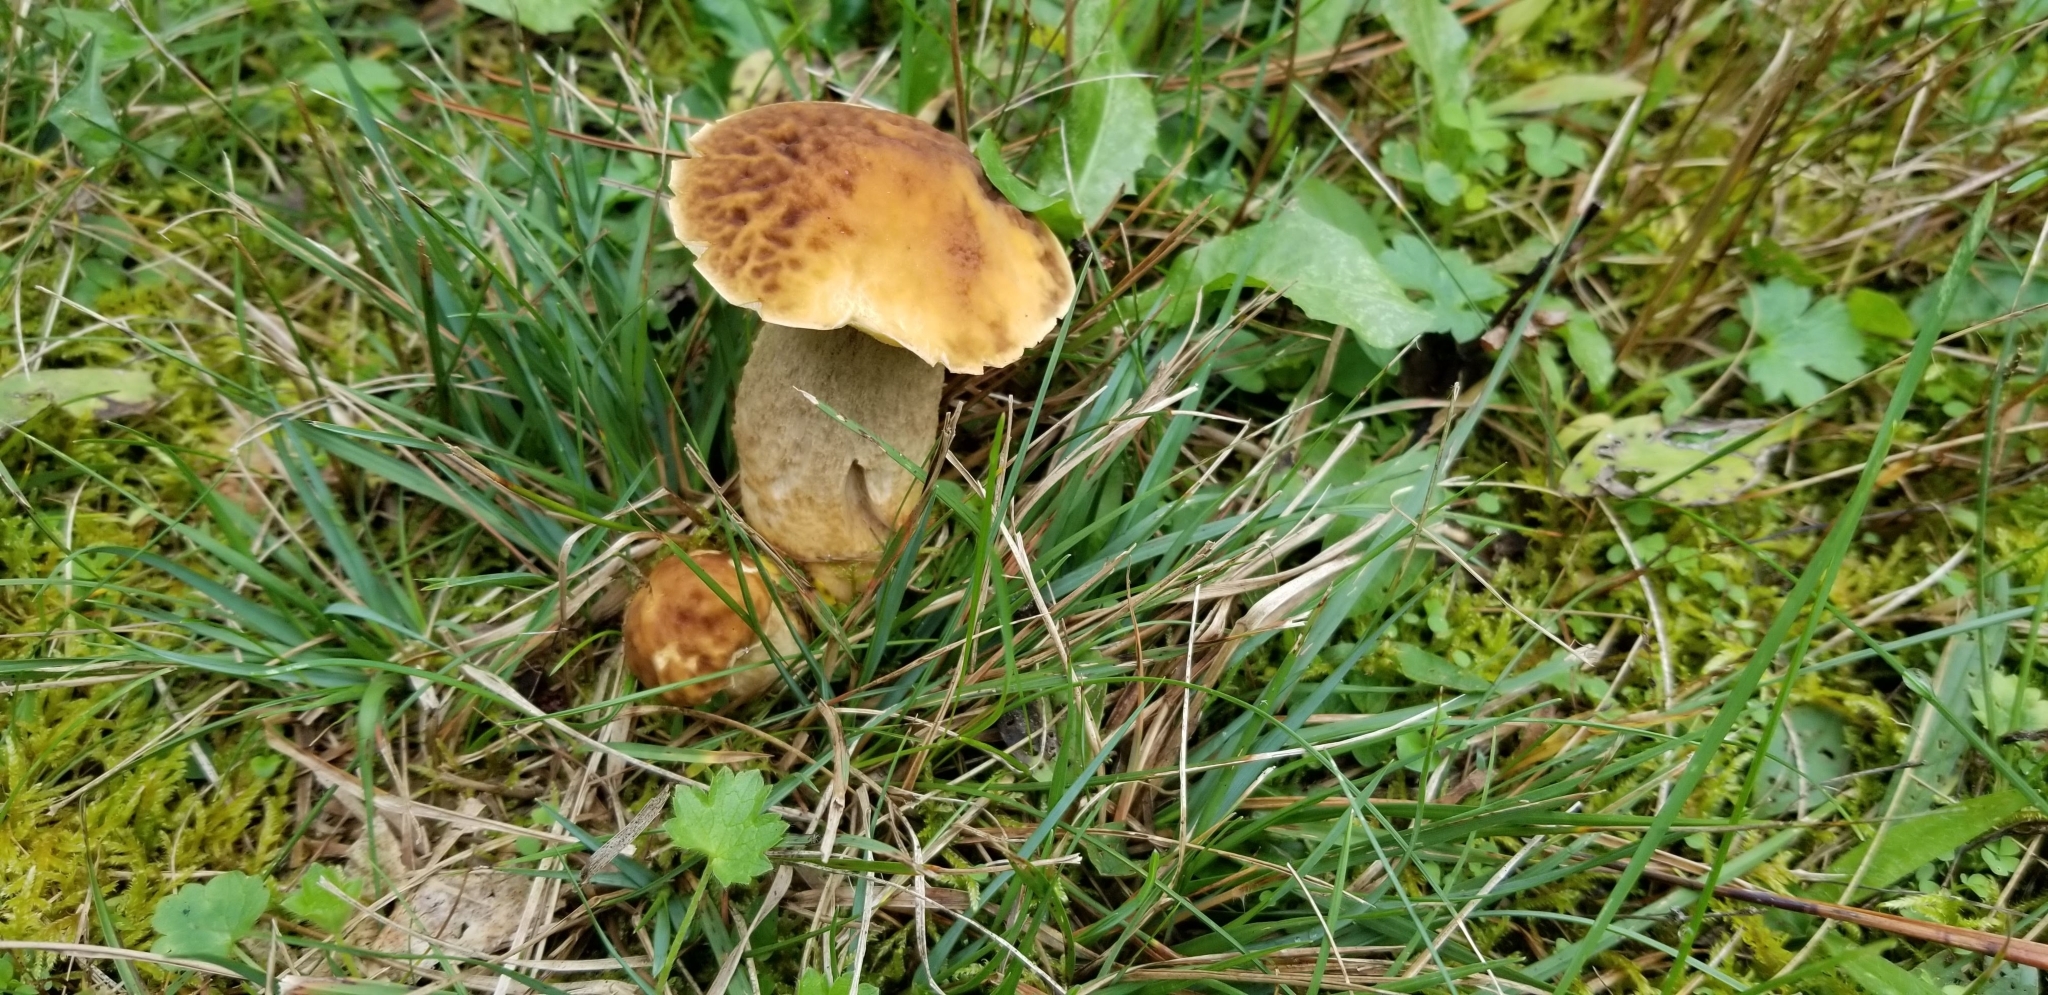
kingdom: Fungi
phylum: Basidiomycota
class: Agaricomycetes
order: Boletales
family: Boletaceae
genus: Boletus
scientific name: Boletus variipes
